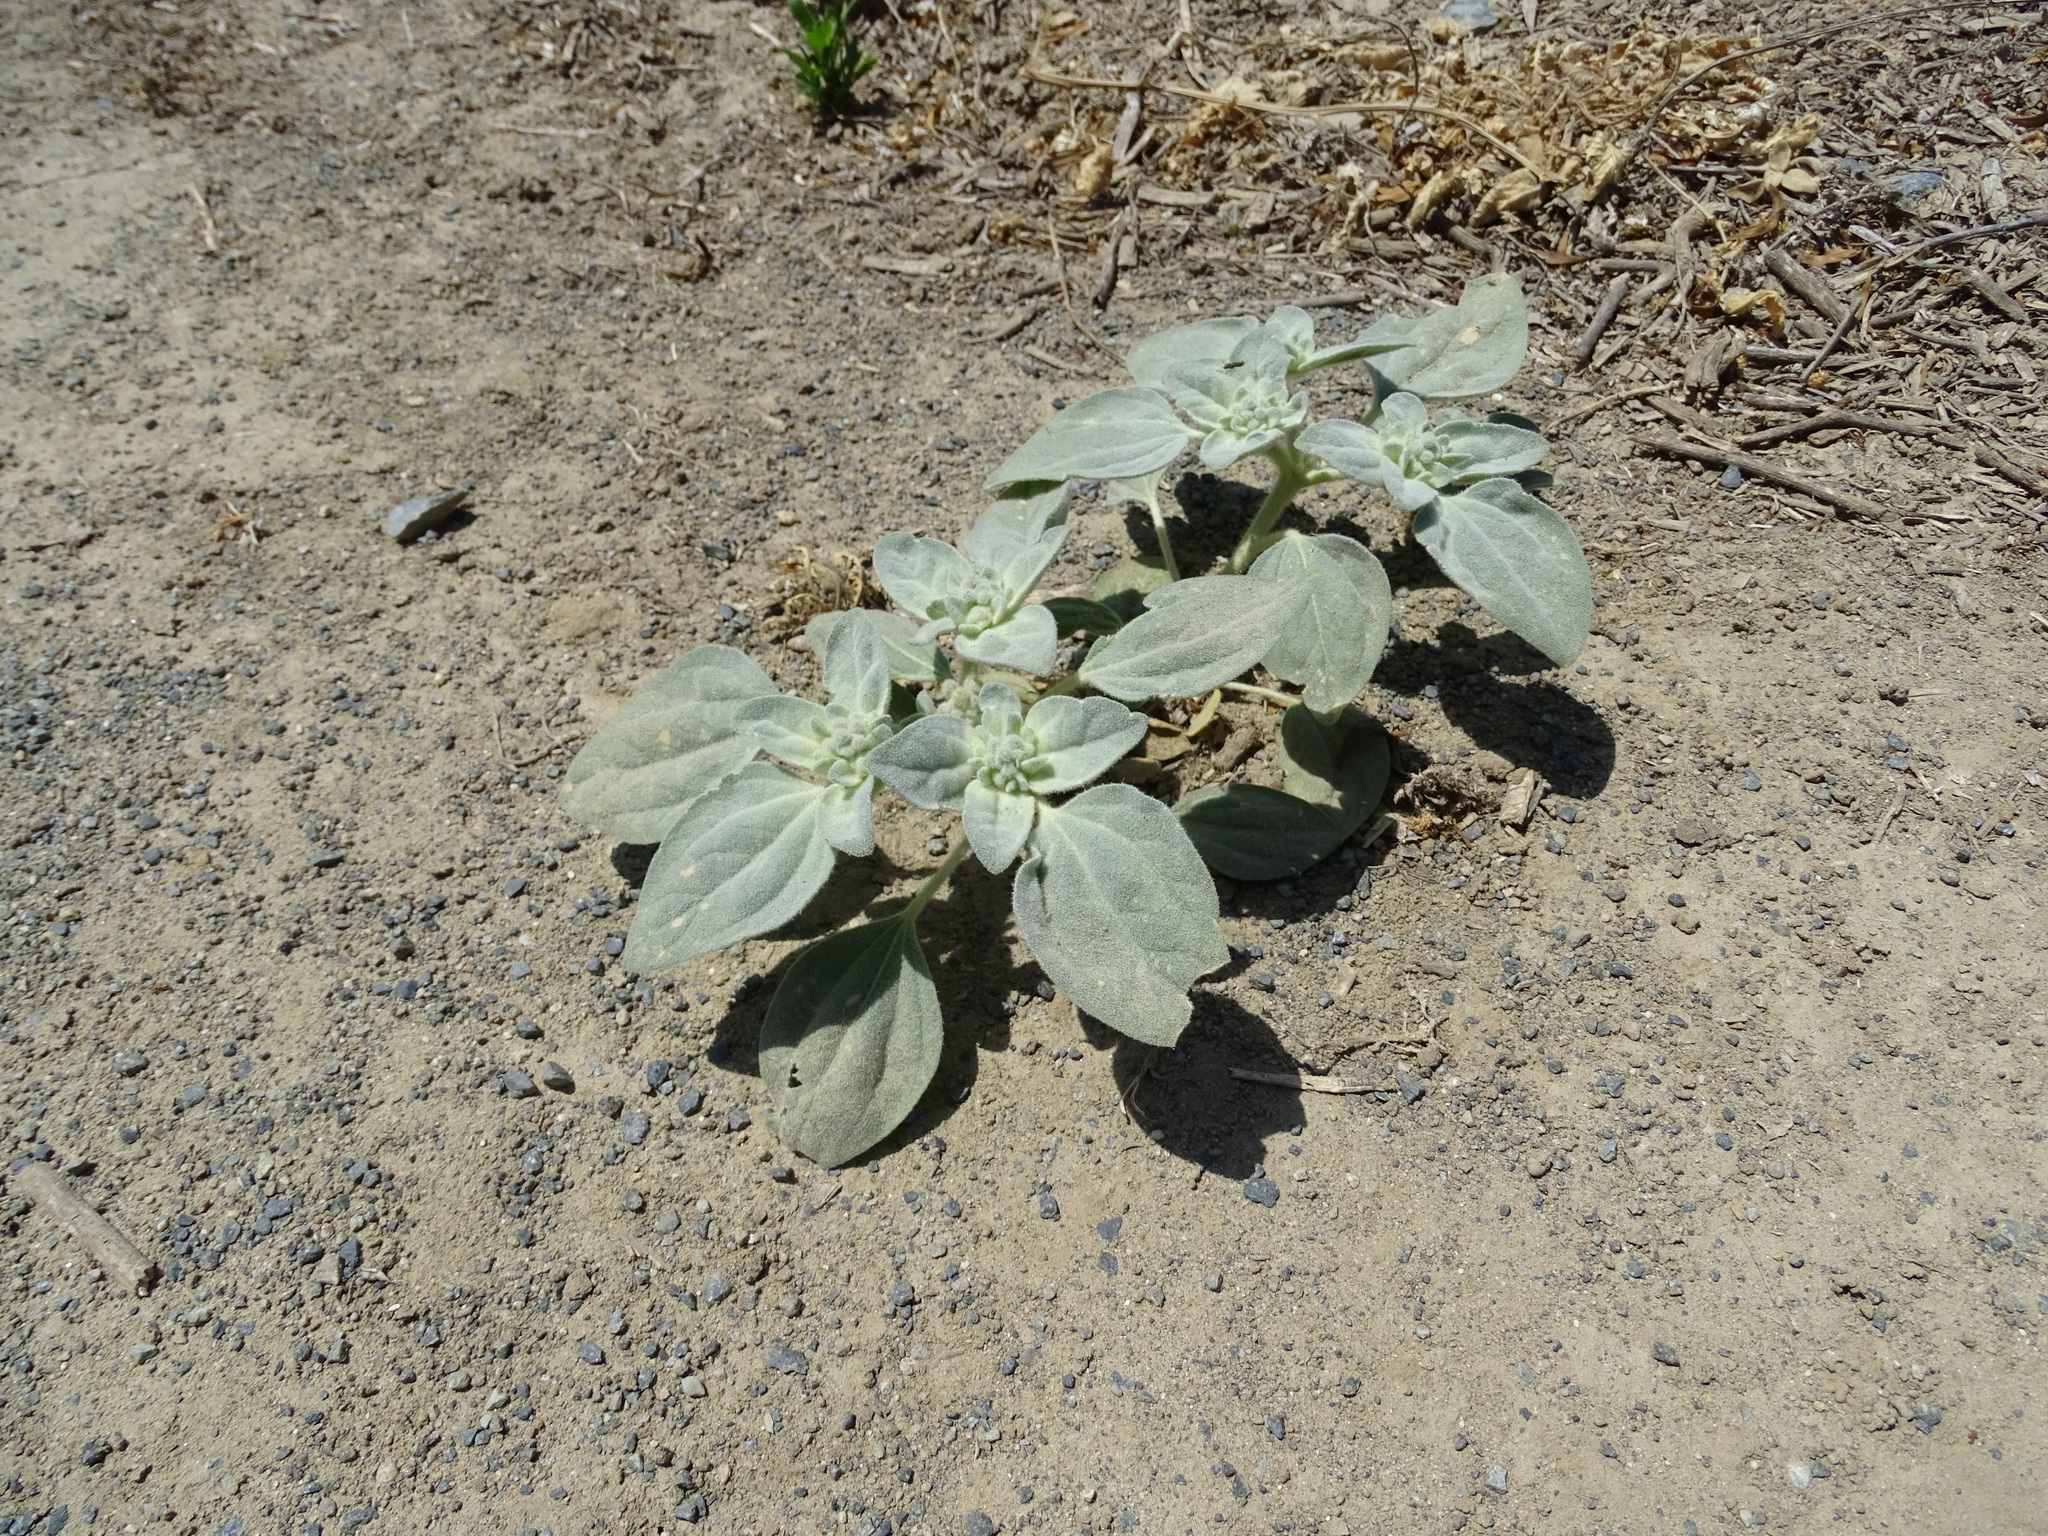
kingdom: Plantae
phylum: Tracheophyta
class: Magnoliopsida
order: Malpighiales
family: Euphorbiaceae
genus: Croton
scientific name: Croton setiger
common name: Dove weed
